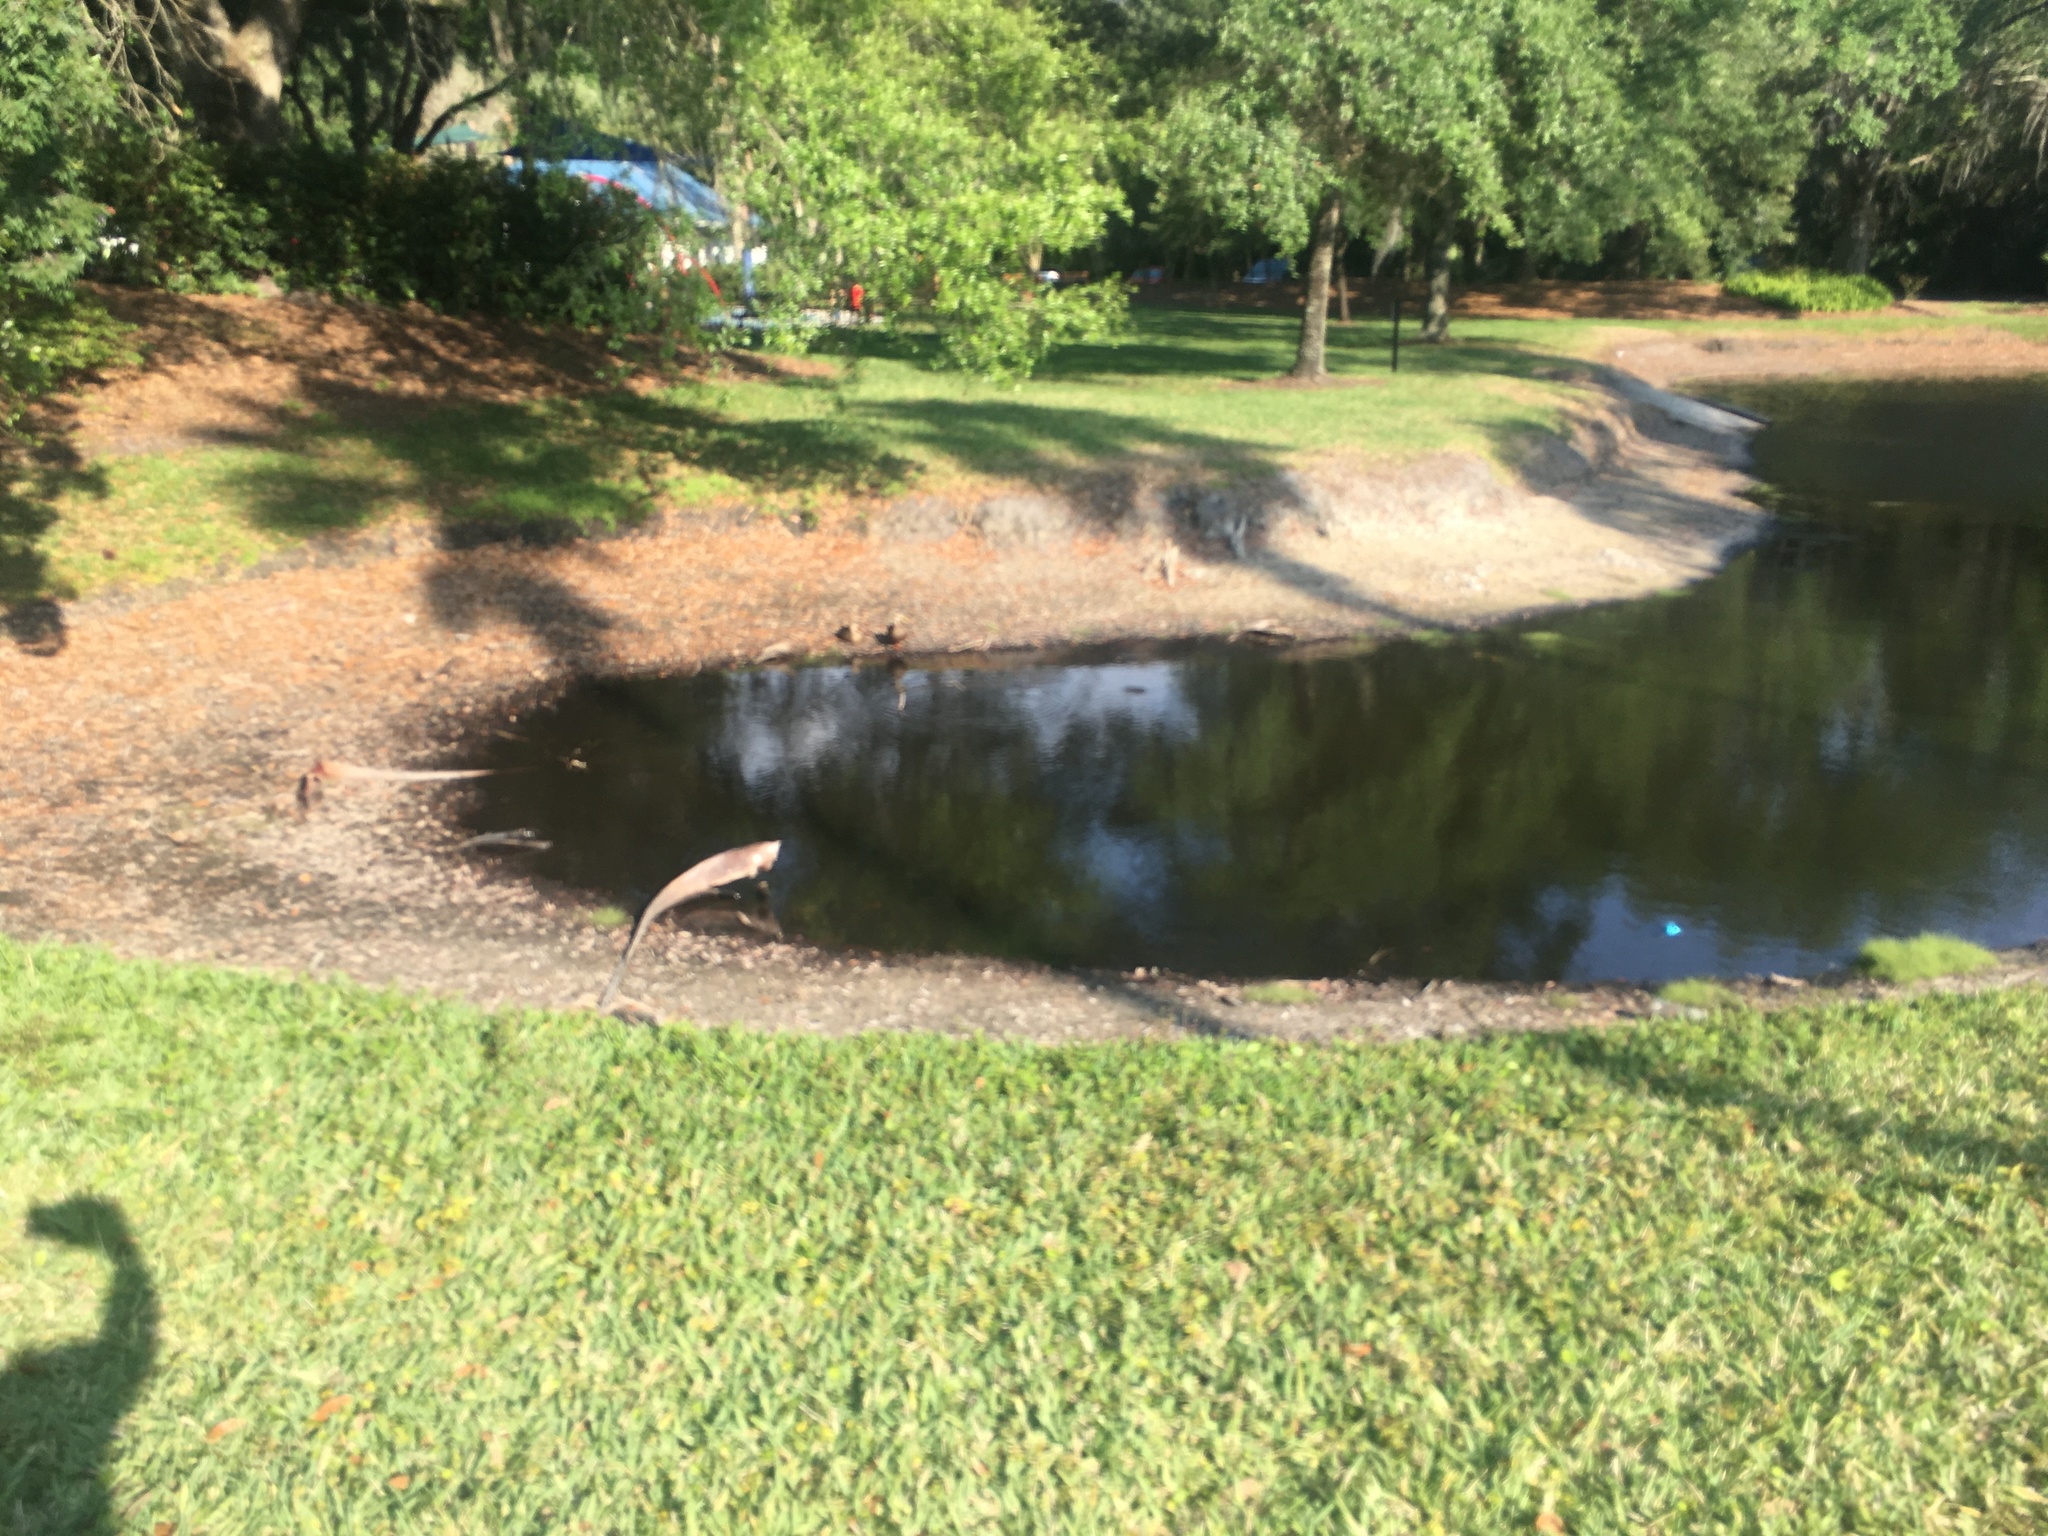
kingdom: Animalia
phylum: Chordata
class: Aves
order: Anseriformes
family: Anatidae
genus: Anas
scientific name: Anas
